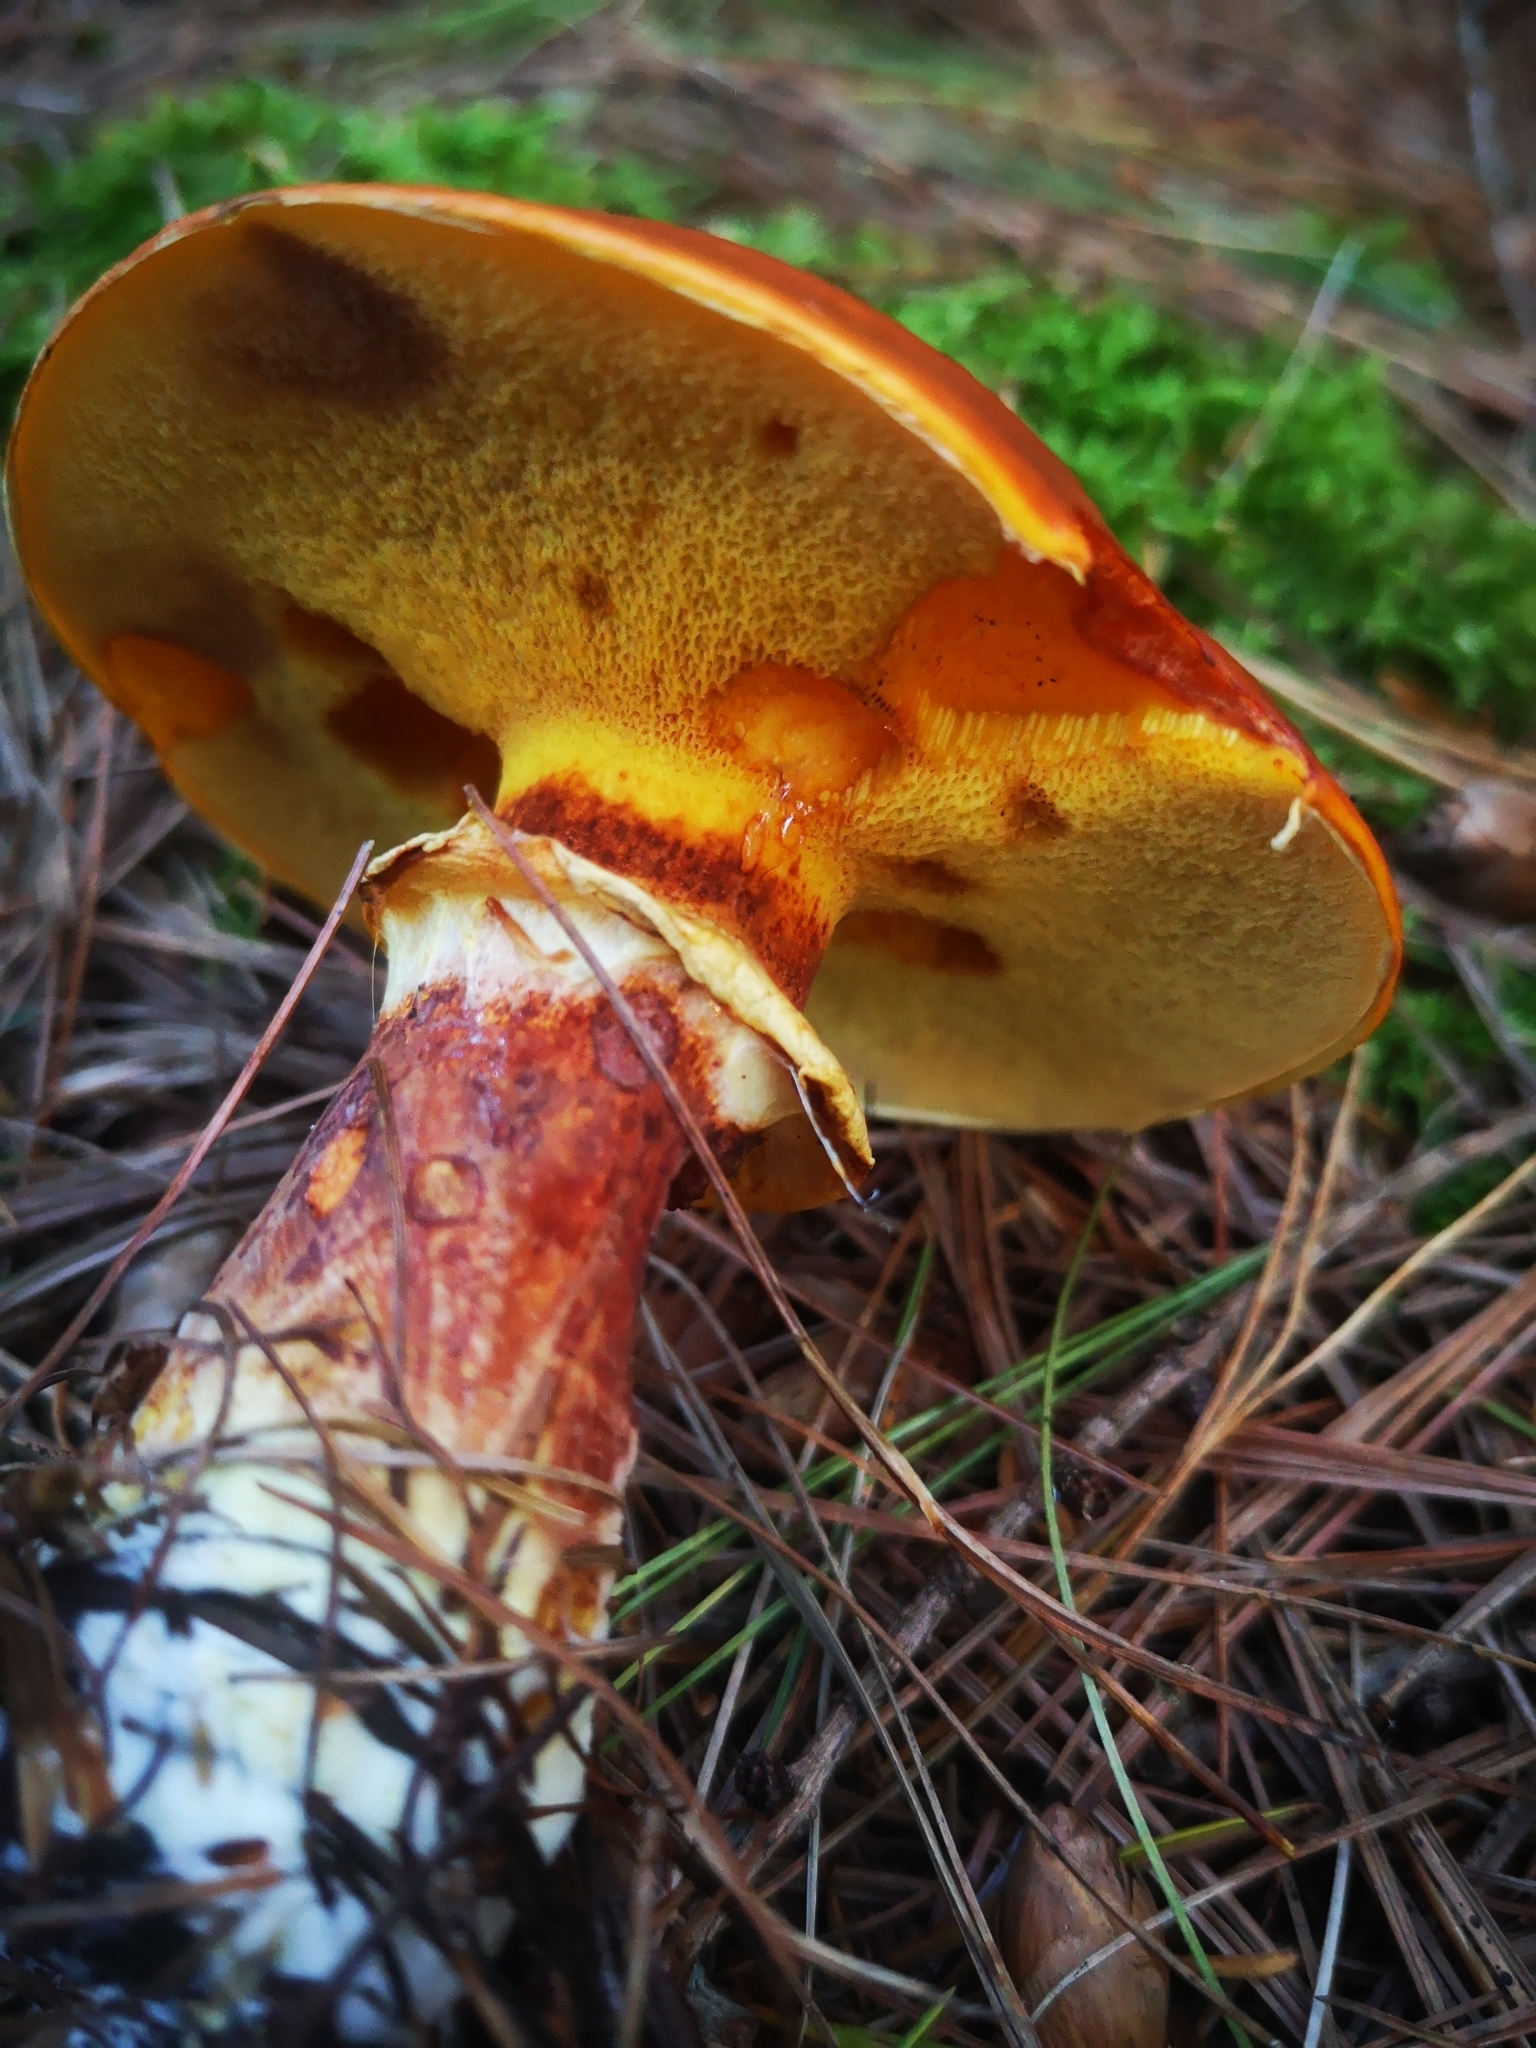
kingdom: Fungi
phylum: Basidiomycota
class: Agaricomycetes
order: Boletales
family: Suillaceae
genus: Suillus
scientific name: Suillus grevillei
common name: Larch bolete
